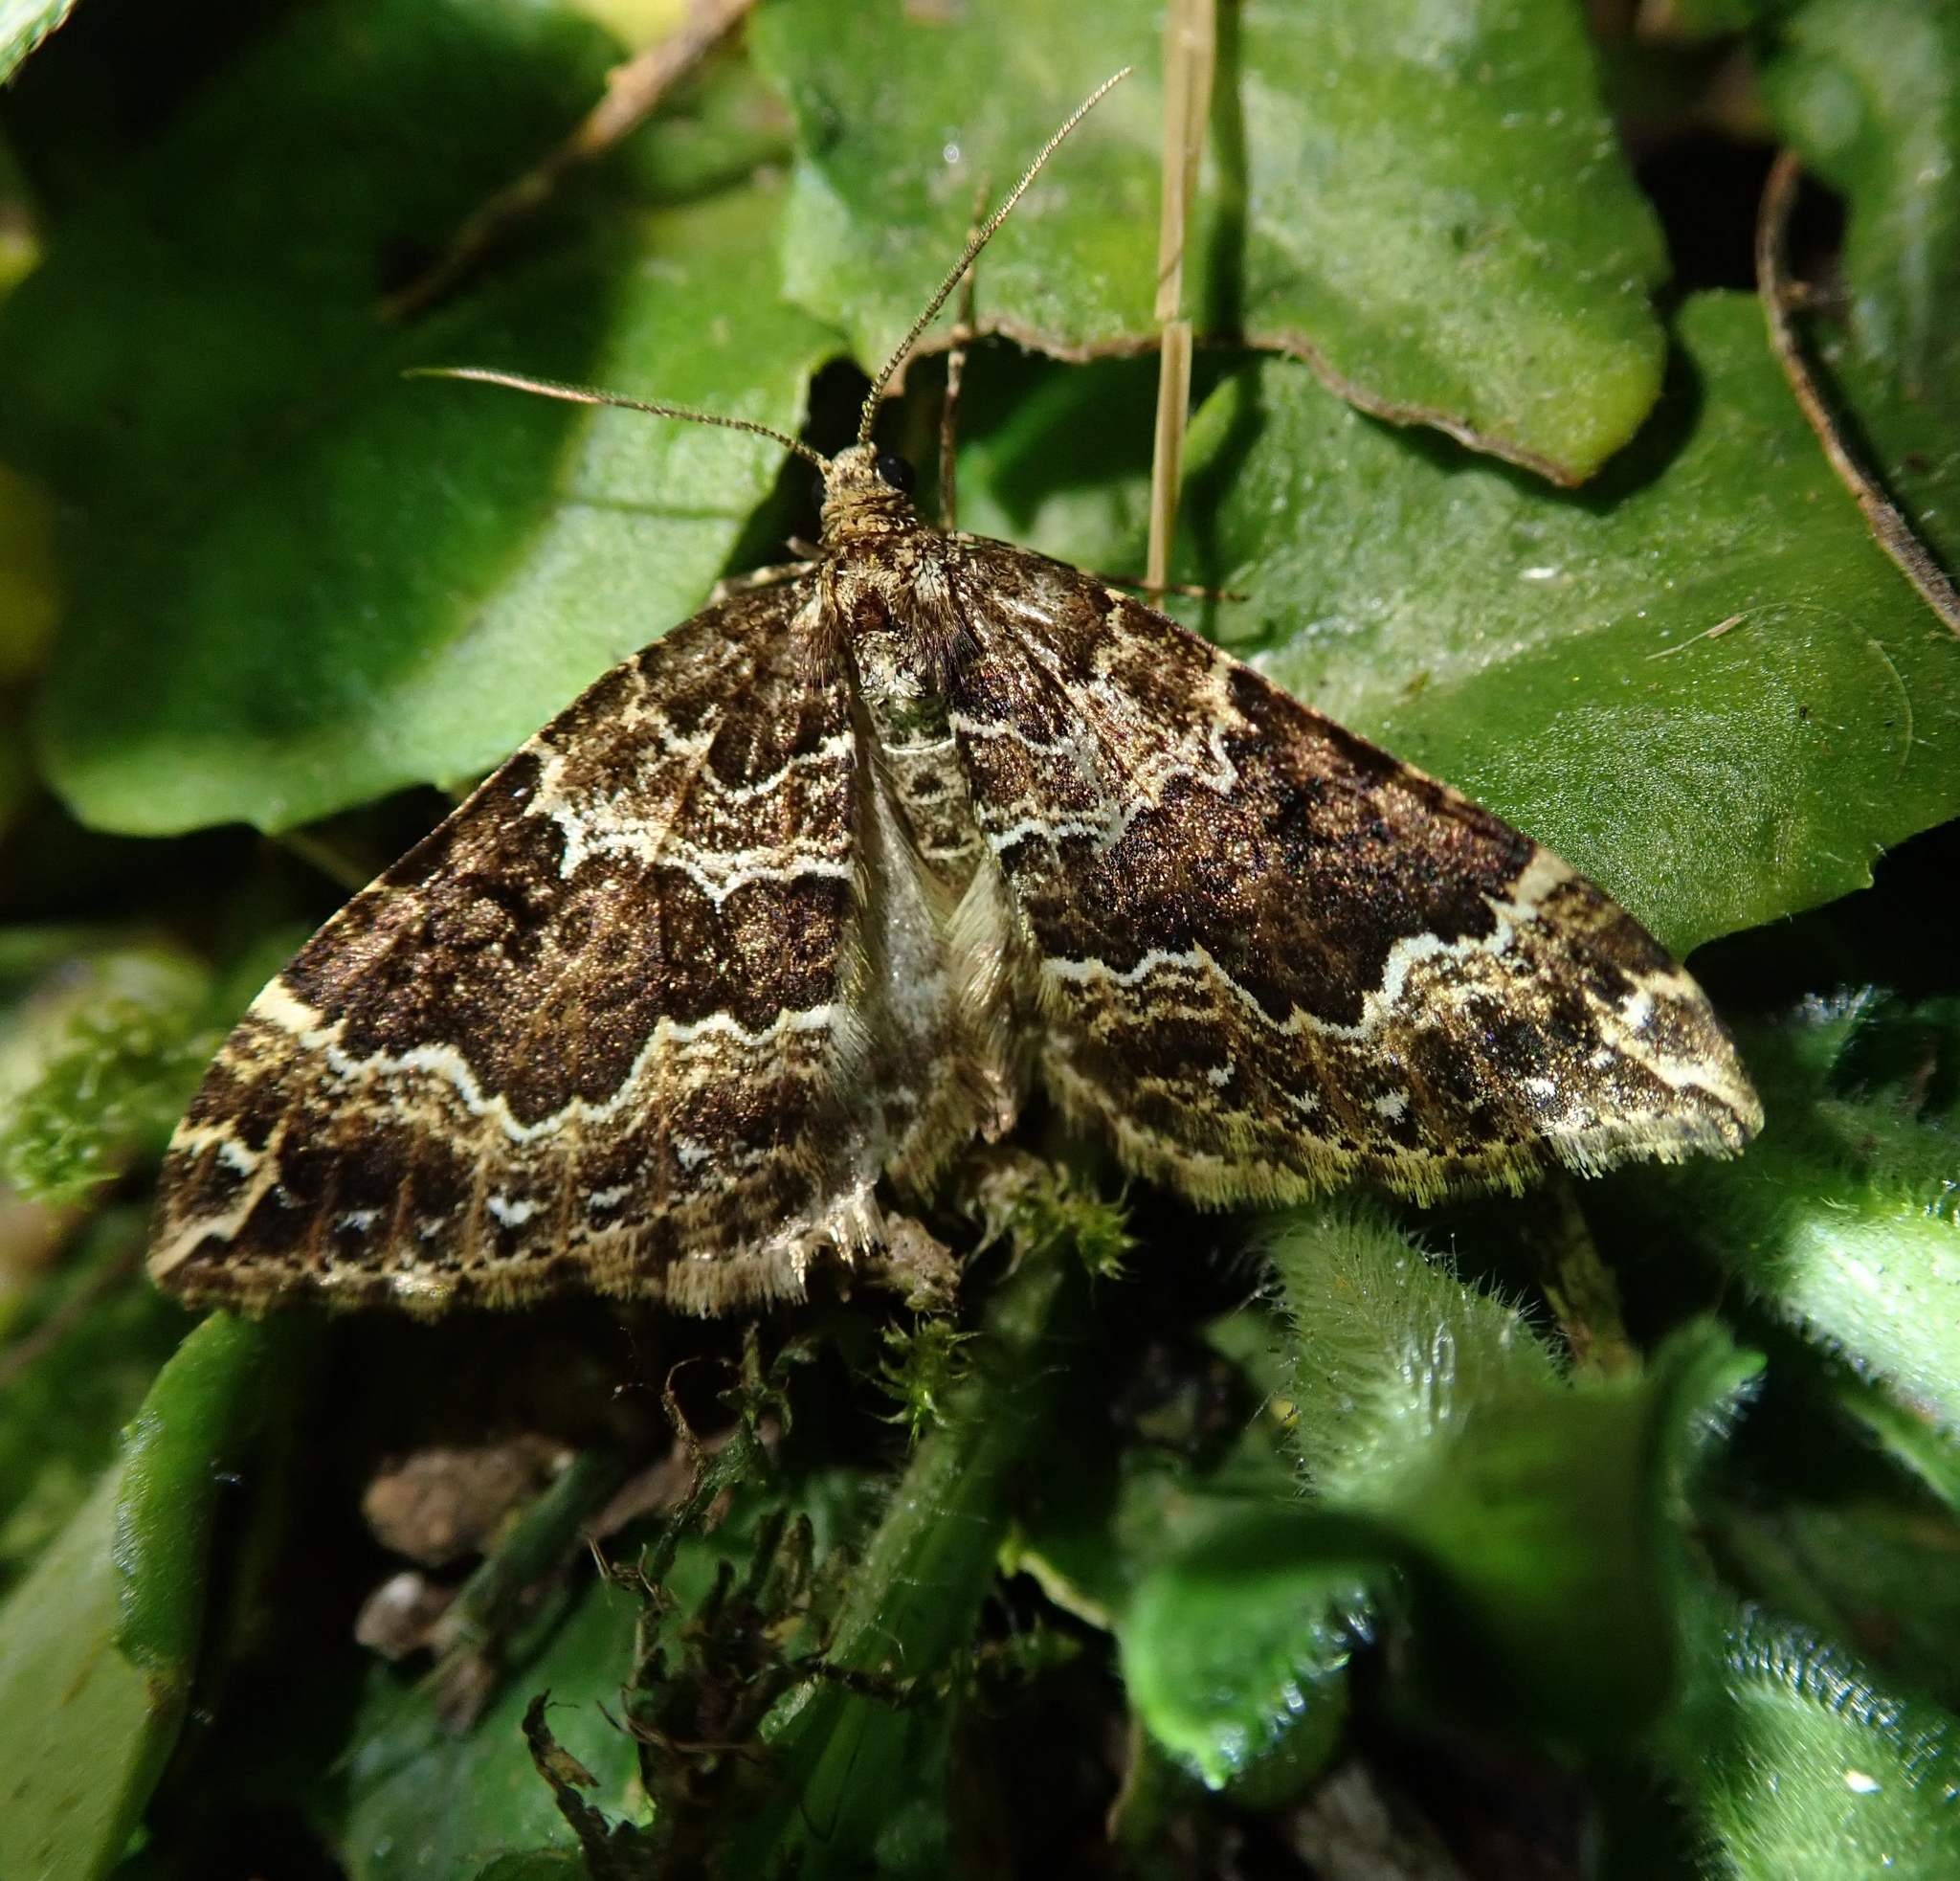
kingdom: Animalia
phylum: Arthropoda
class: Insecta
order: Lepidoptera
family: Geometridae
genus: Lampropteryx
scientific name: Lampropteryx suffumata
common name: Water carpet
